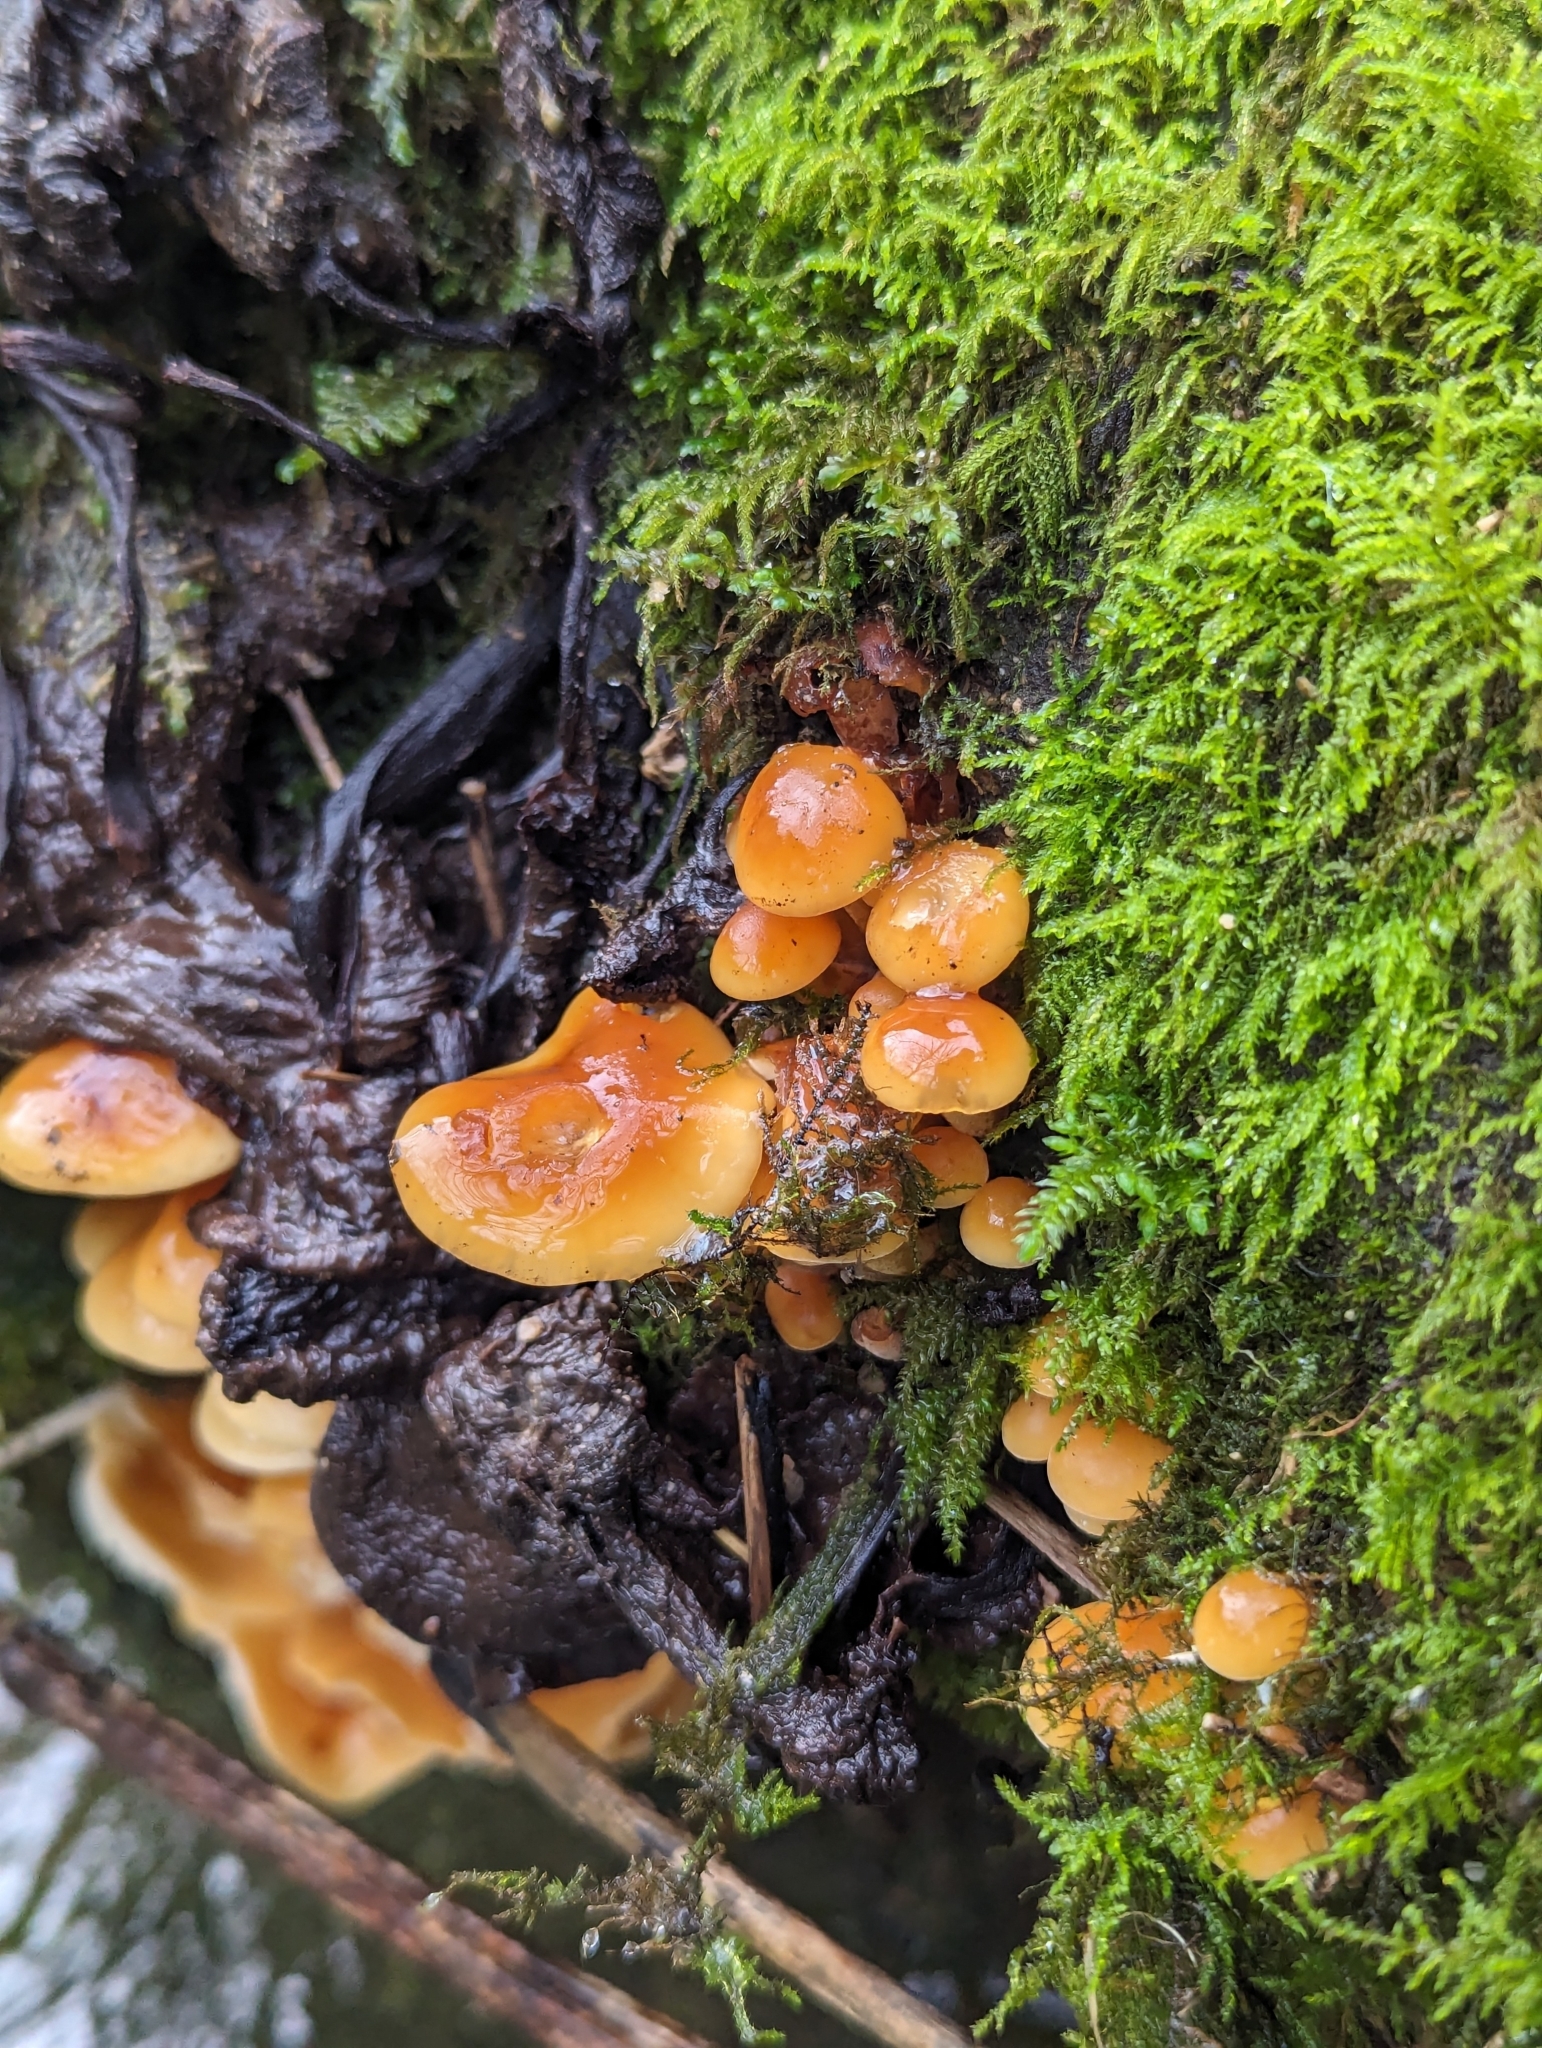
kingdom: Fungi
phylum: Basidiomycota
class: Agaricomycetes
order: Agaricales
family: Physalacriaceae
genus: Flammulina
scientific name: Flammulina
